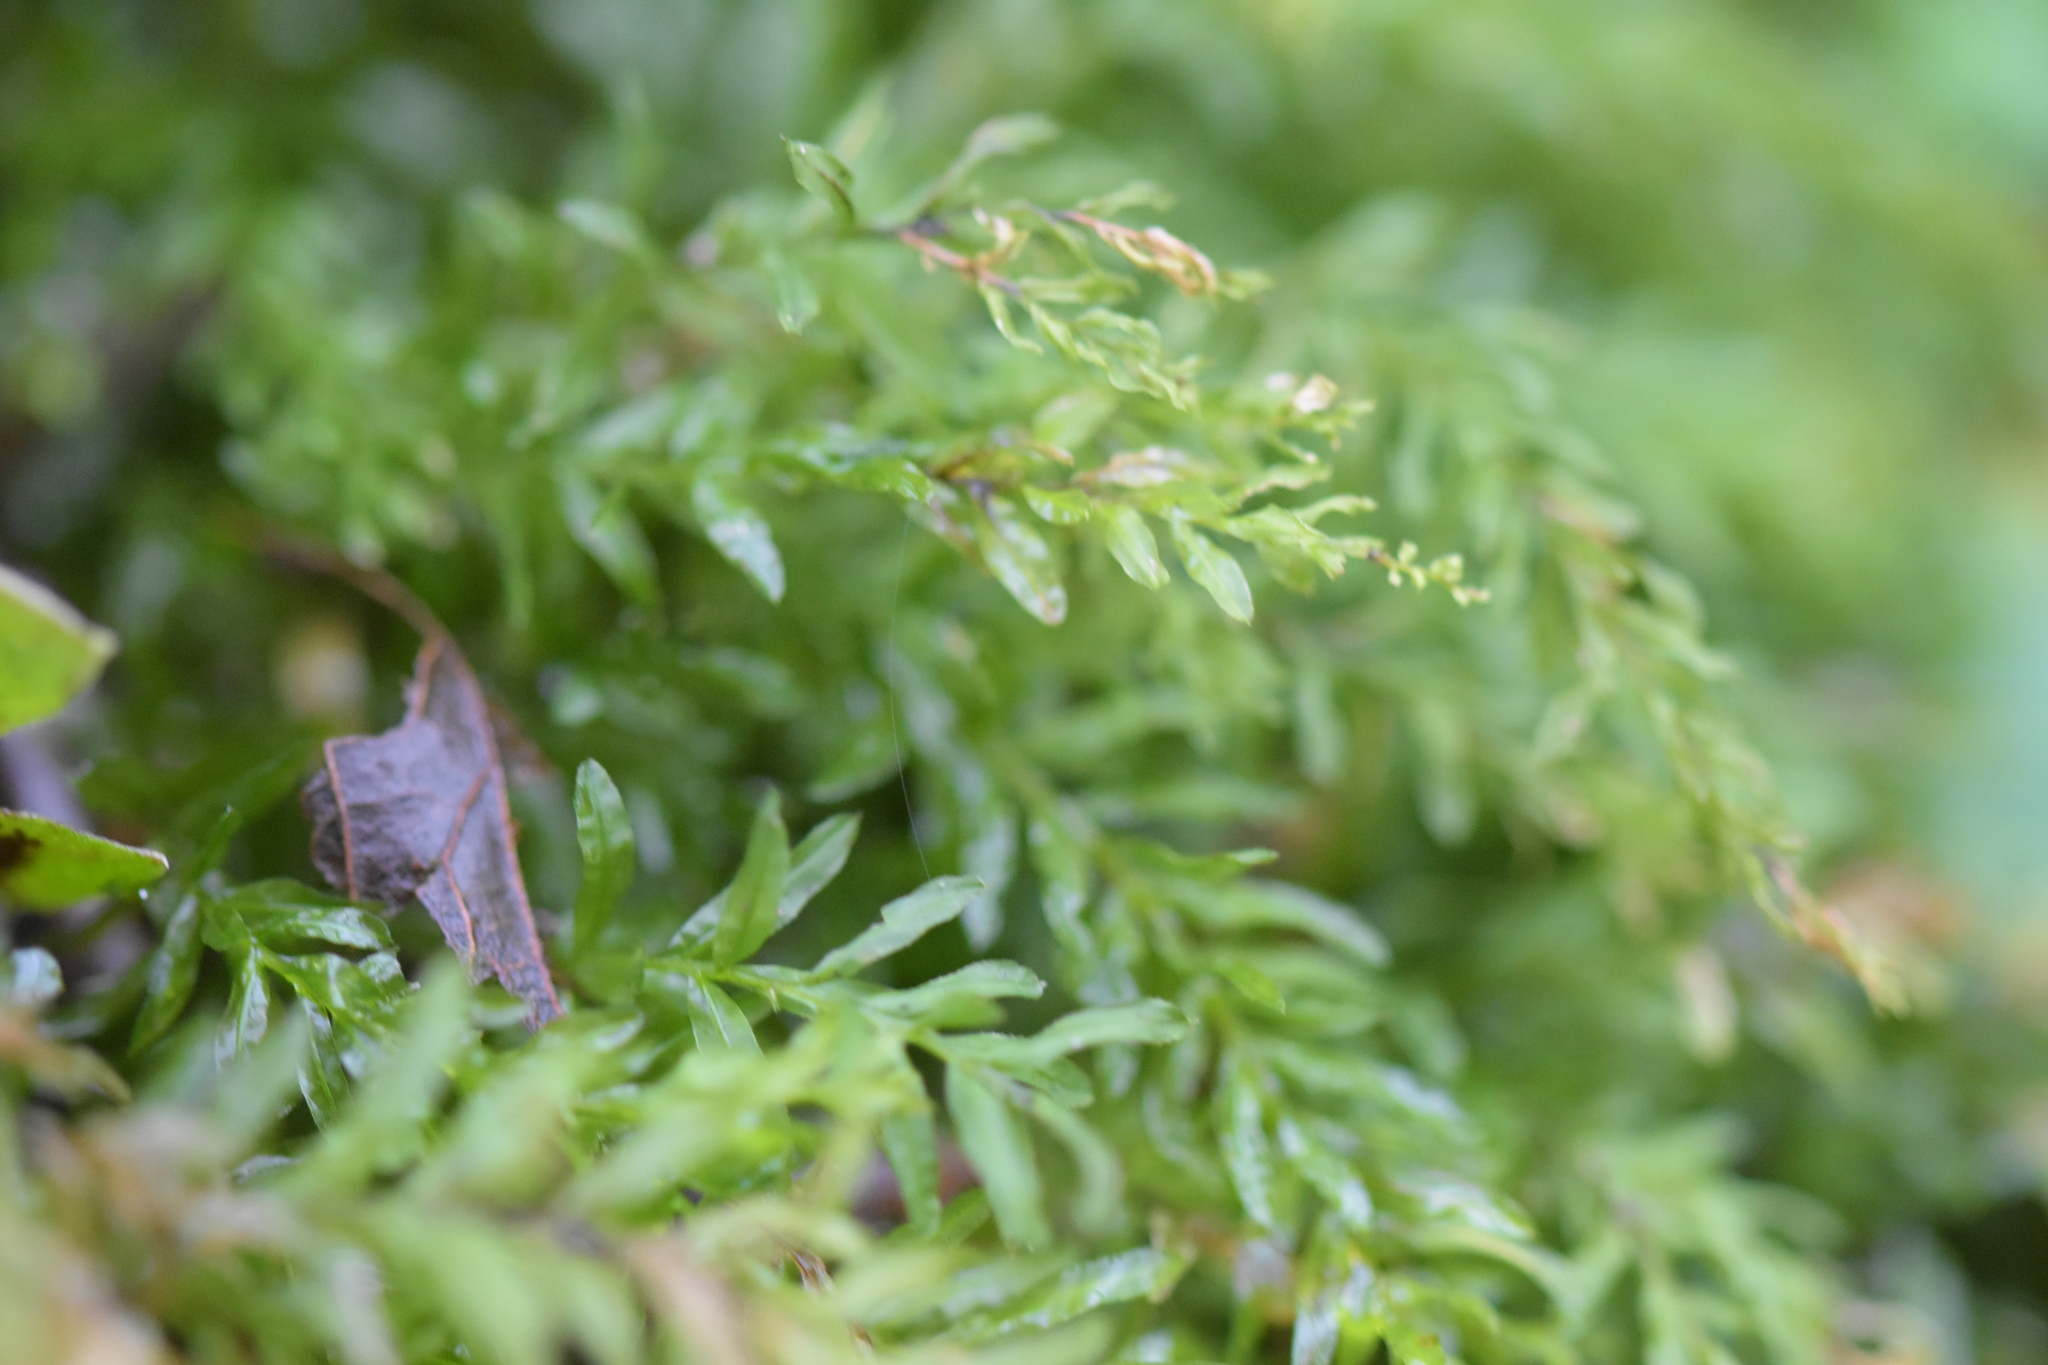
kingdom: Plantae
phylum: Bryophyta
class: Bryopsida
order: Bryales
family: Mniaceae
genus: Plagiomnium
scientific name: Plagiomnium undulatum
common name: Hart's-tongue thyme-moss
